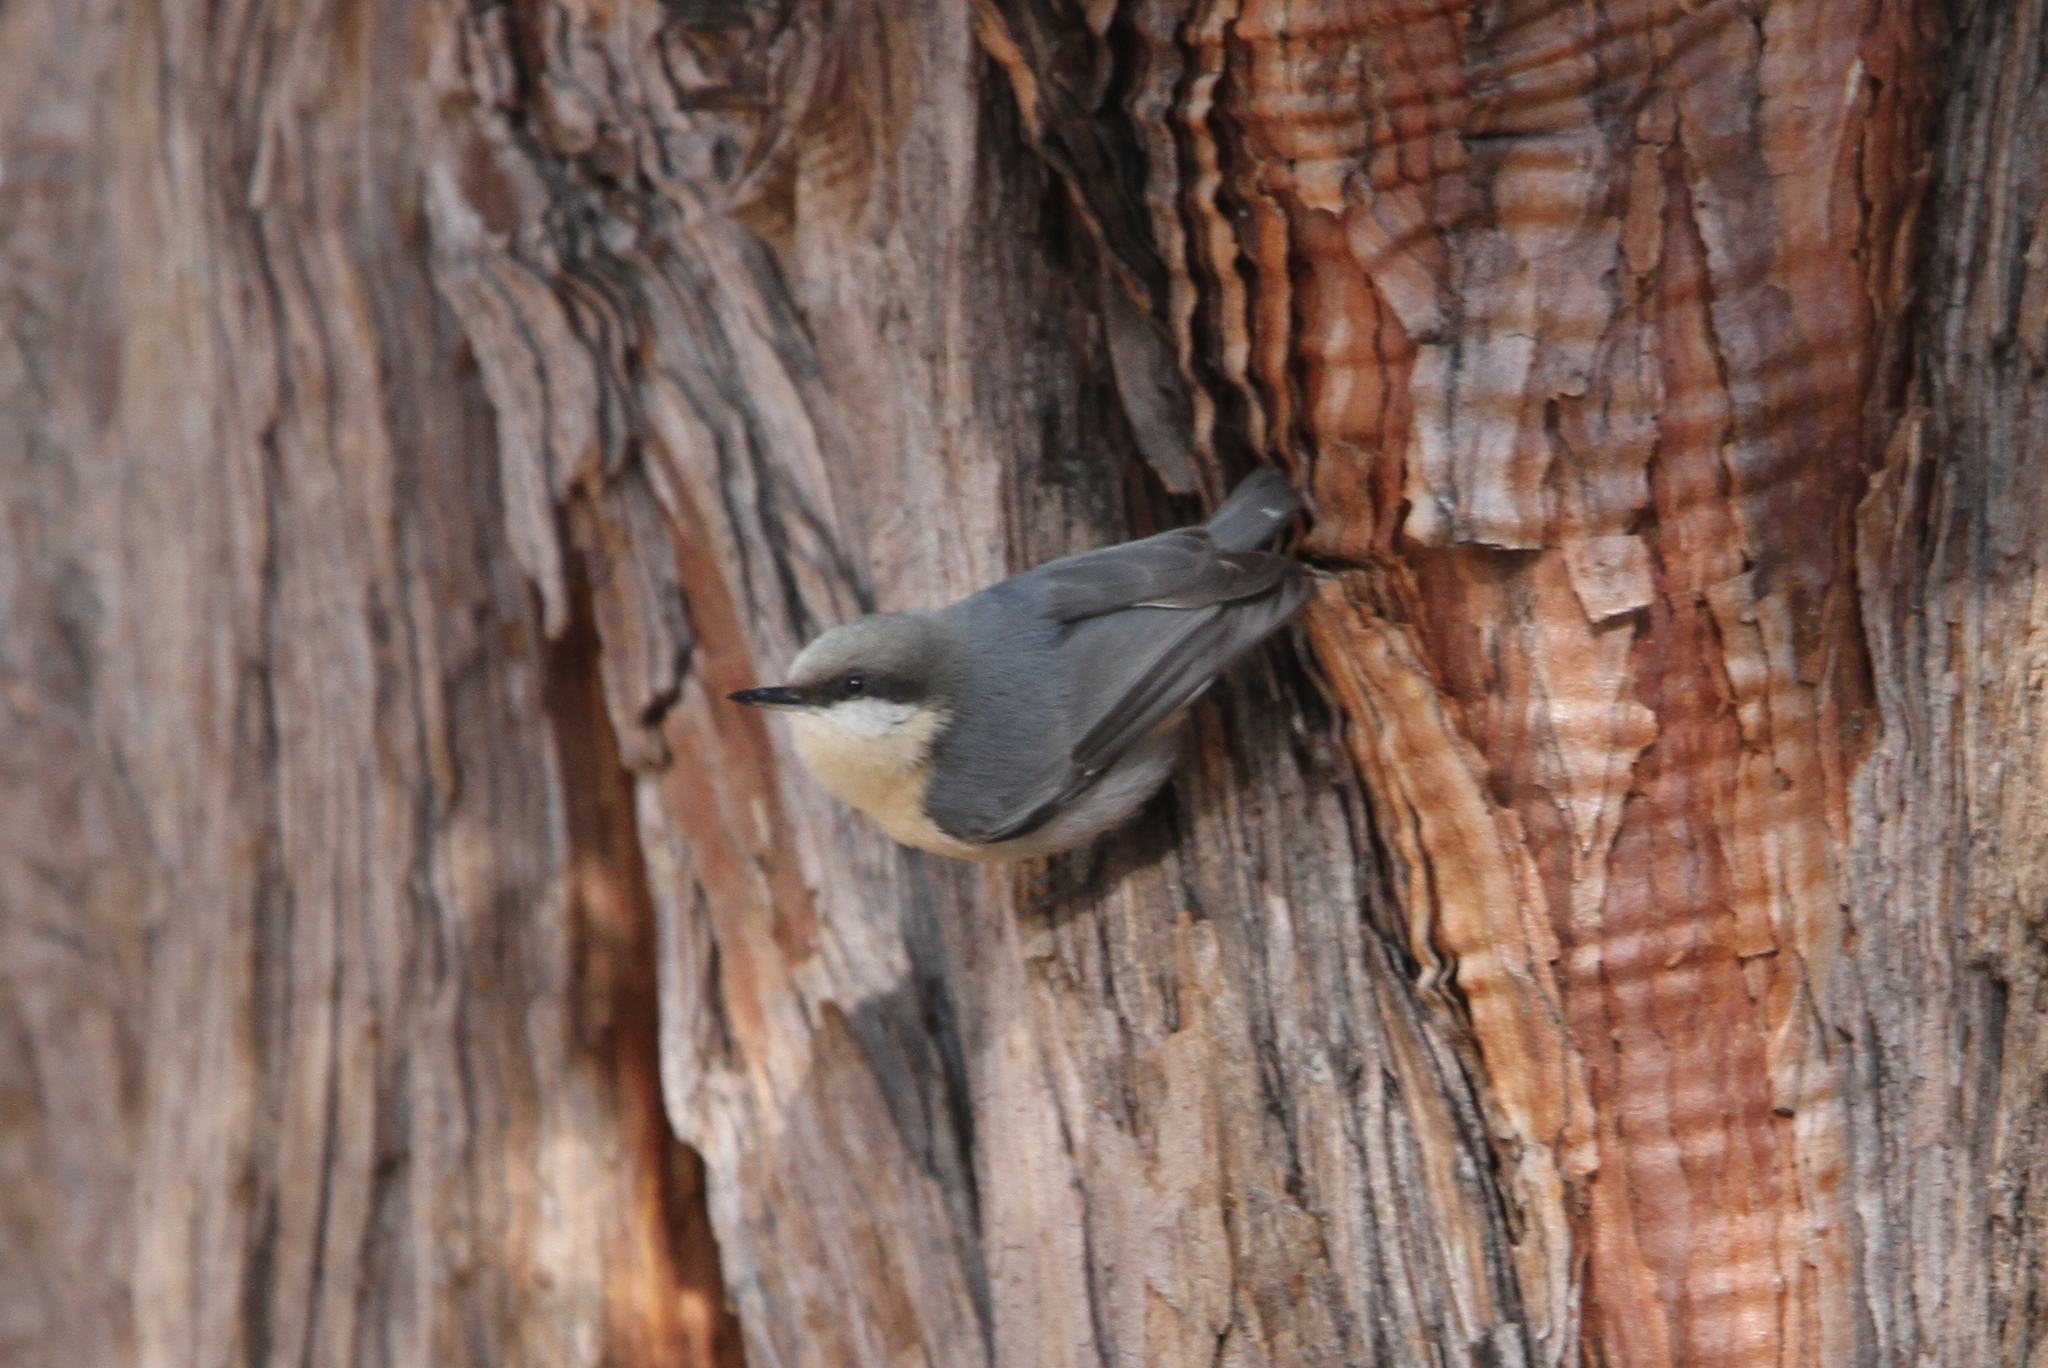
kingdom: Animalia
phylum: Chordata
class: Aves
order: Passeriformes
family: Sittidae
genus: Sitta
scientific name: Sitta pygmaea
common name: Pygmy nuthatch
